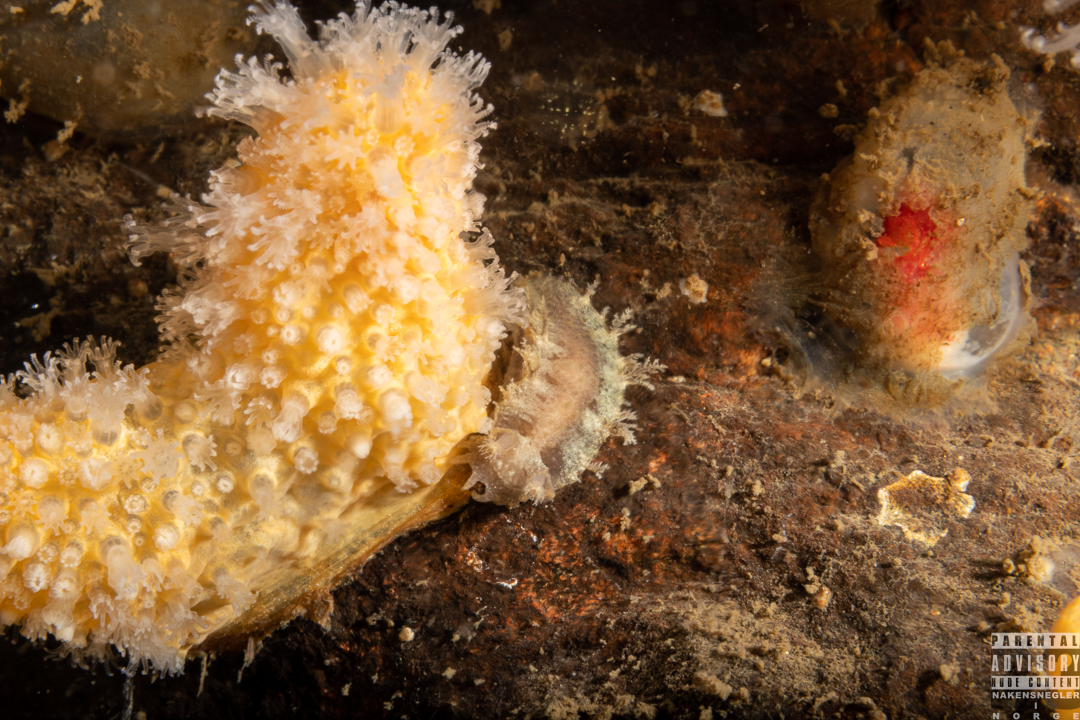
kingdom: Animalia
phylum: Mollusca
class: Gastropoda
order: Nudibranchia
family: Tritoniidae
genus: Duvaucelia
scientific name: Duvaucelia plebeia
